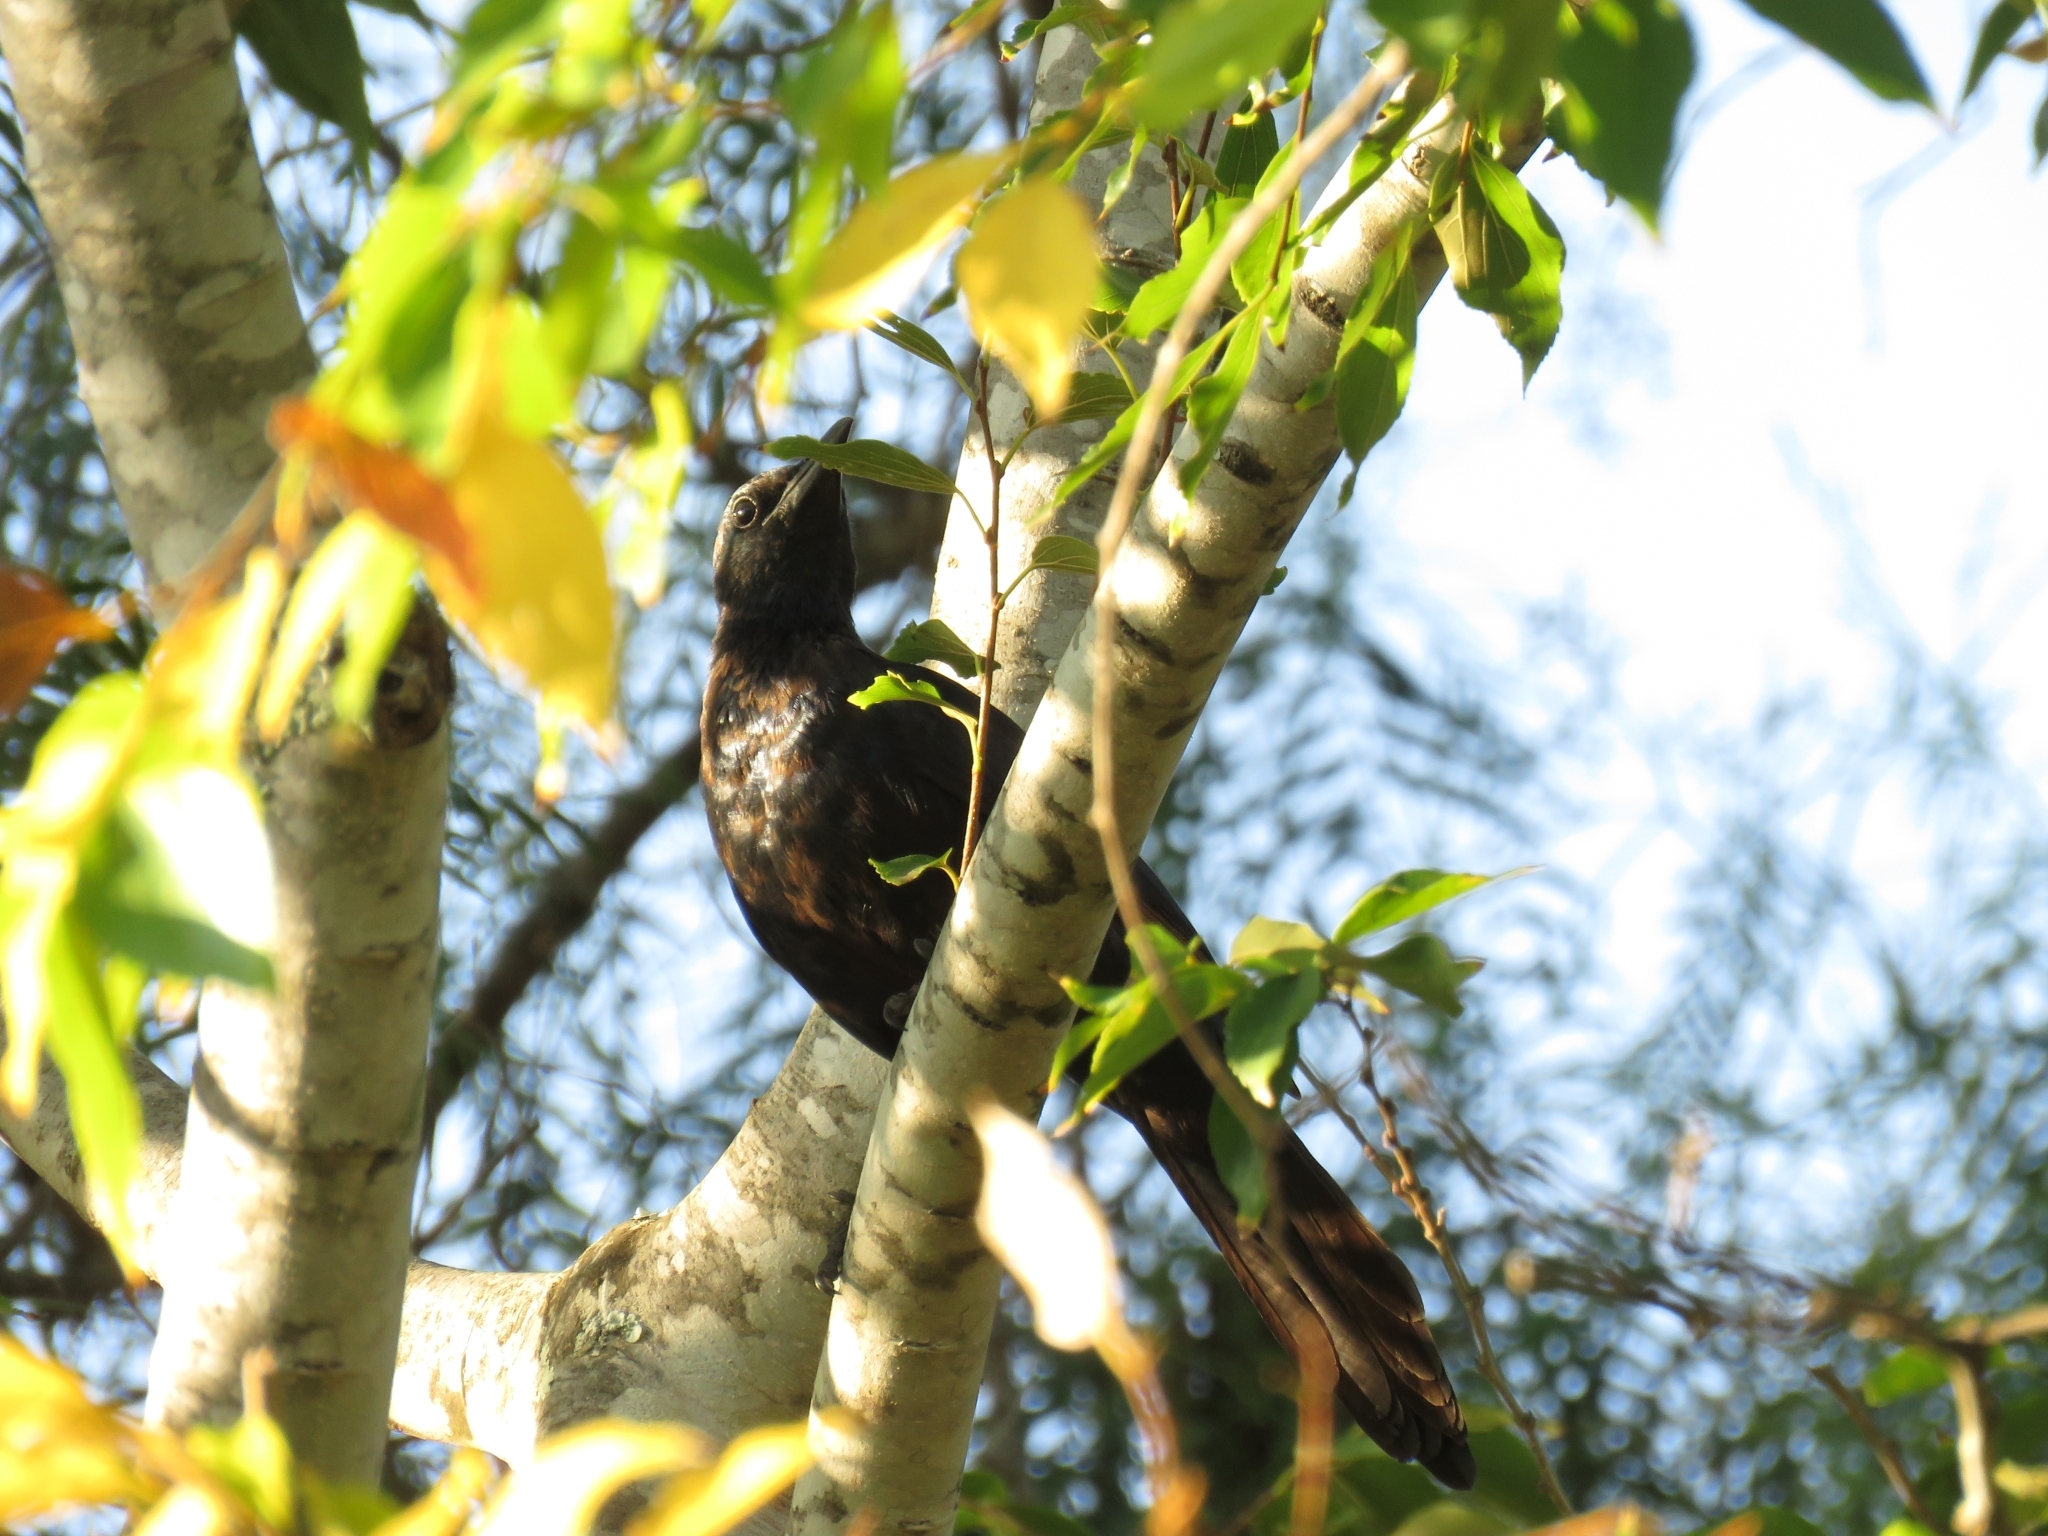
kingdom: Animalia
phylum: Chordata
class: Aves
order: Passeriformes
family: Sturnidae
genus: Onychognathus
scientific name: Onychognathus morio
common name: Red-winged starling
